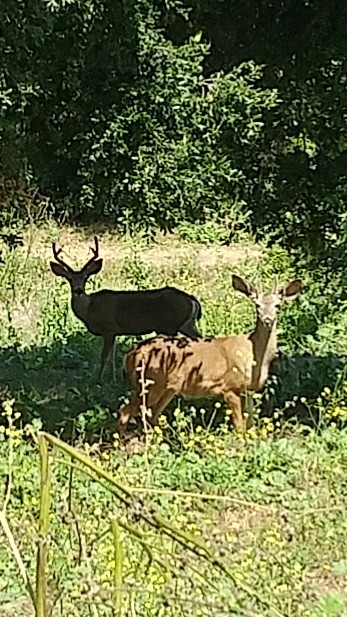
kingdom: Animalia
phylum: Chordata
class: Mammalia
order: Artiodactyla
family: Cervidae
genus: Odocoileus
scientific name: Odocoileus hemionus
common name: Mule deer
